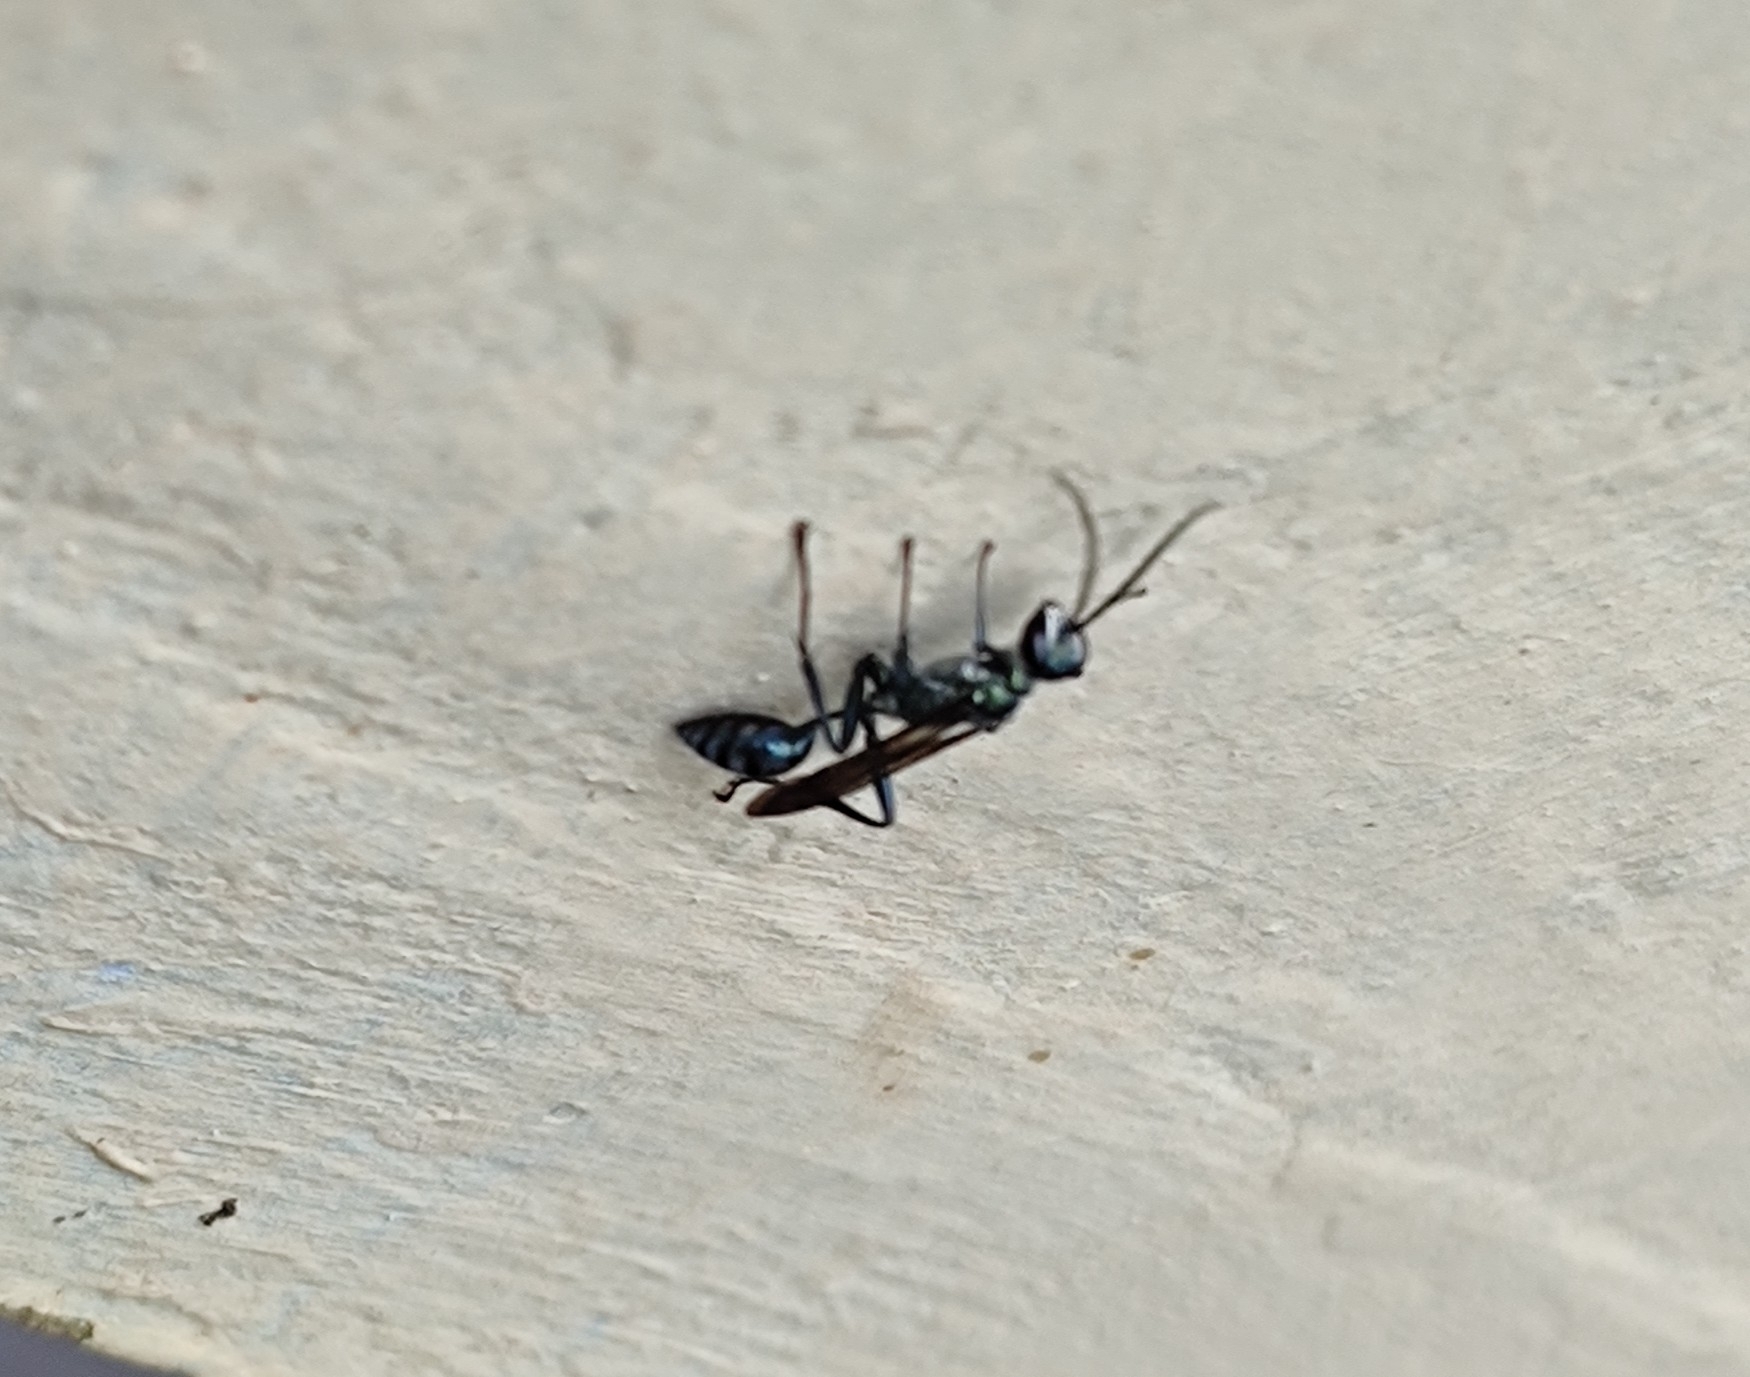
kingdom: Animalia
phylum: Arthropoda
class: Insecta
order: Hymenoptera
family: Sphecidae
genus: Chalybion
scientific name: Chalybion bengalense
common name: Mud dauber
